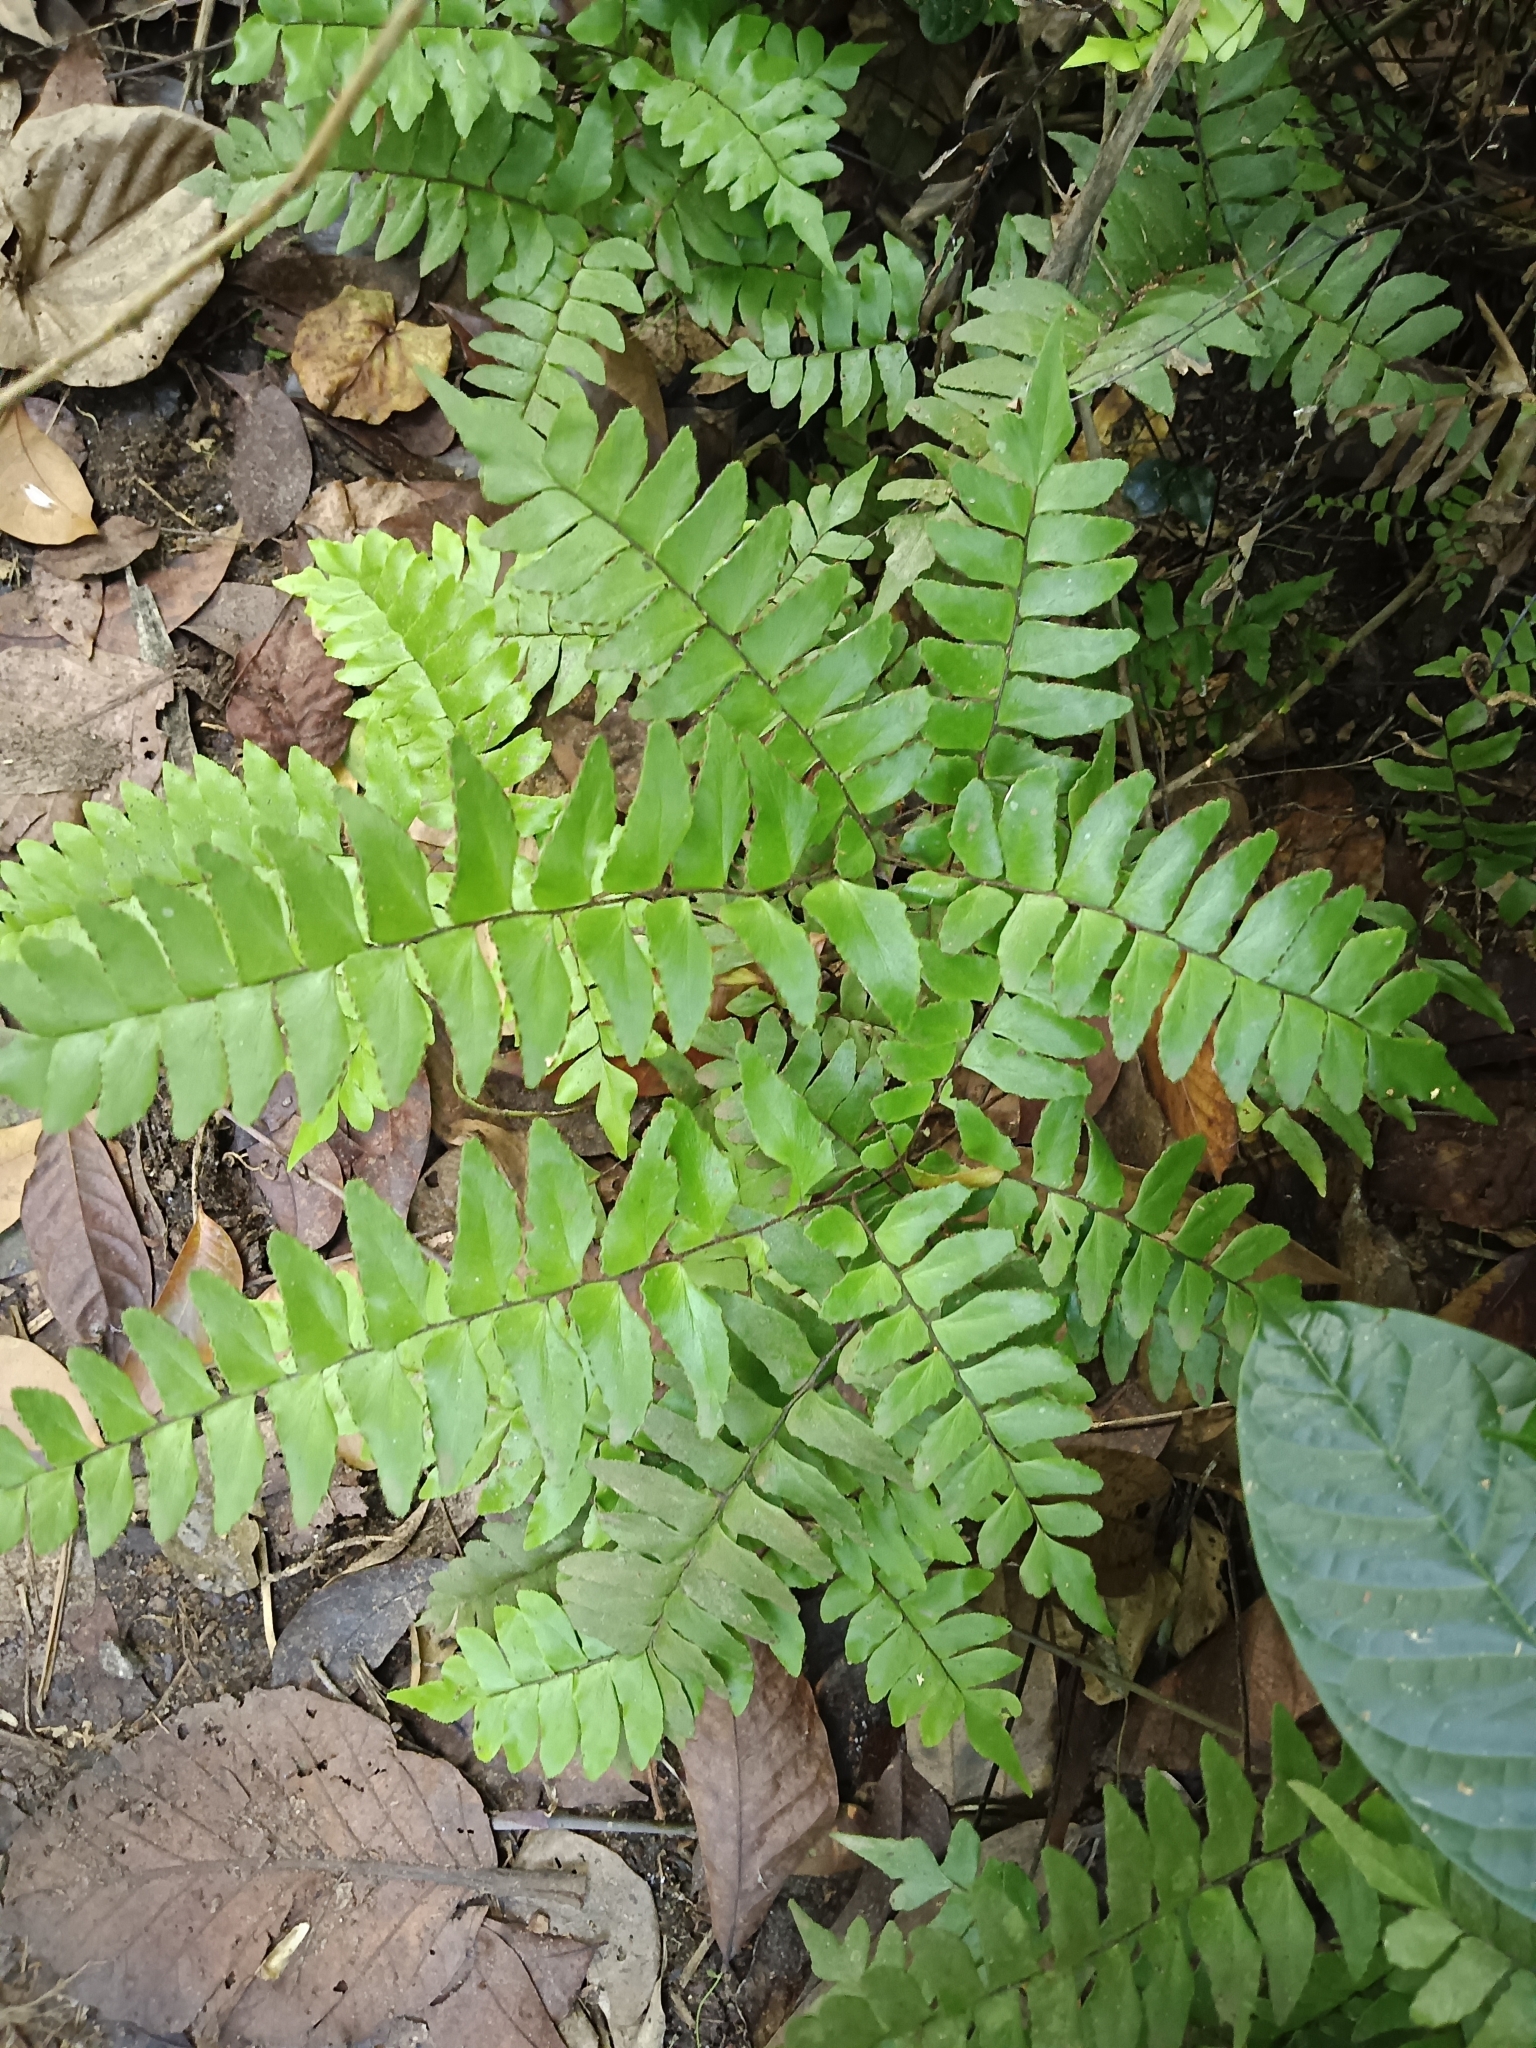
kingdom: Plantae
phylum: Tracheophyta
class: Polypodiopsida
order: Polypodiales
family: Pteridaceae
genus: Adiantum
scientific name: Adiantum latifolium
